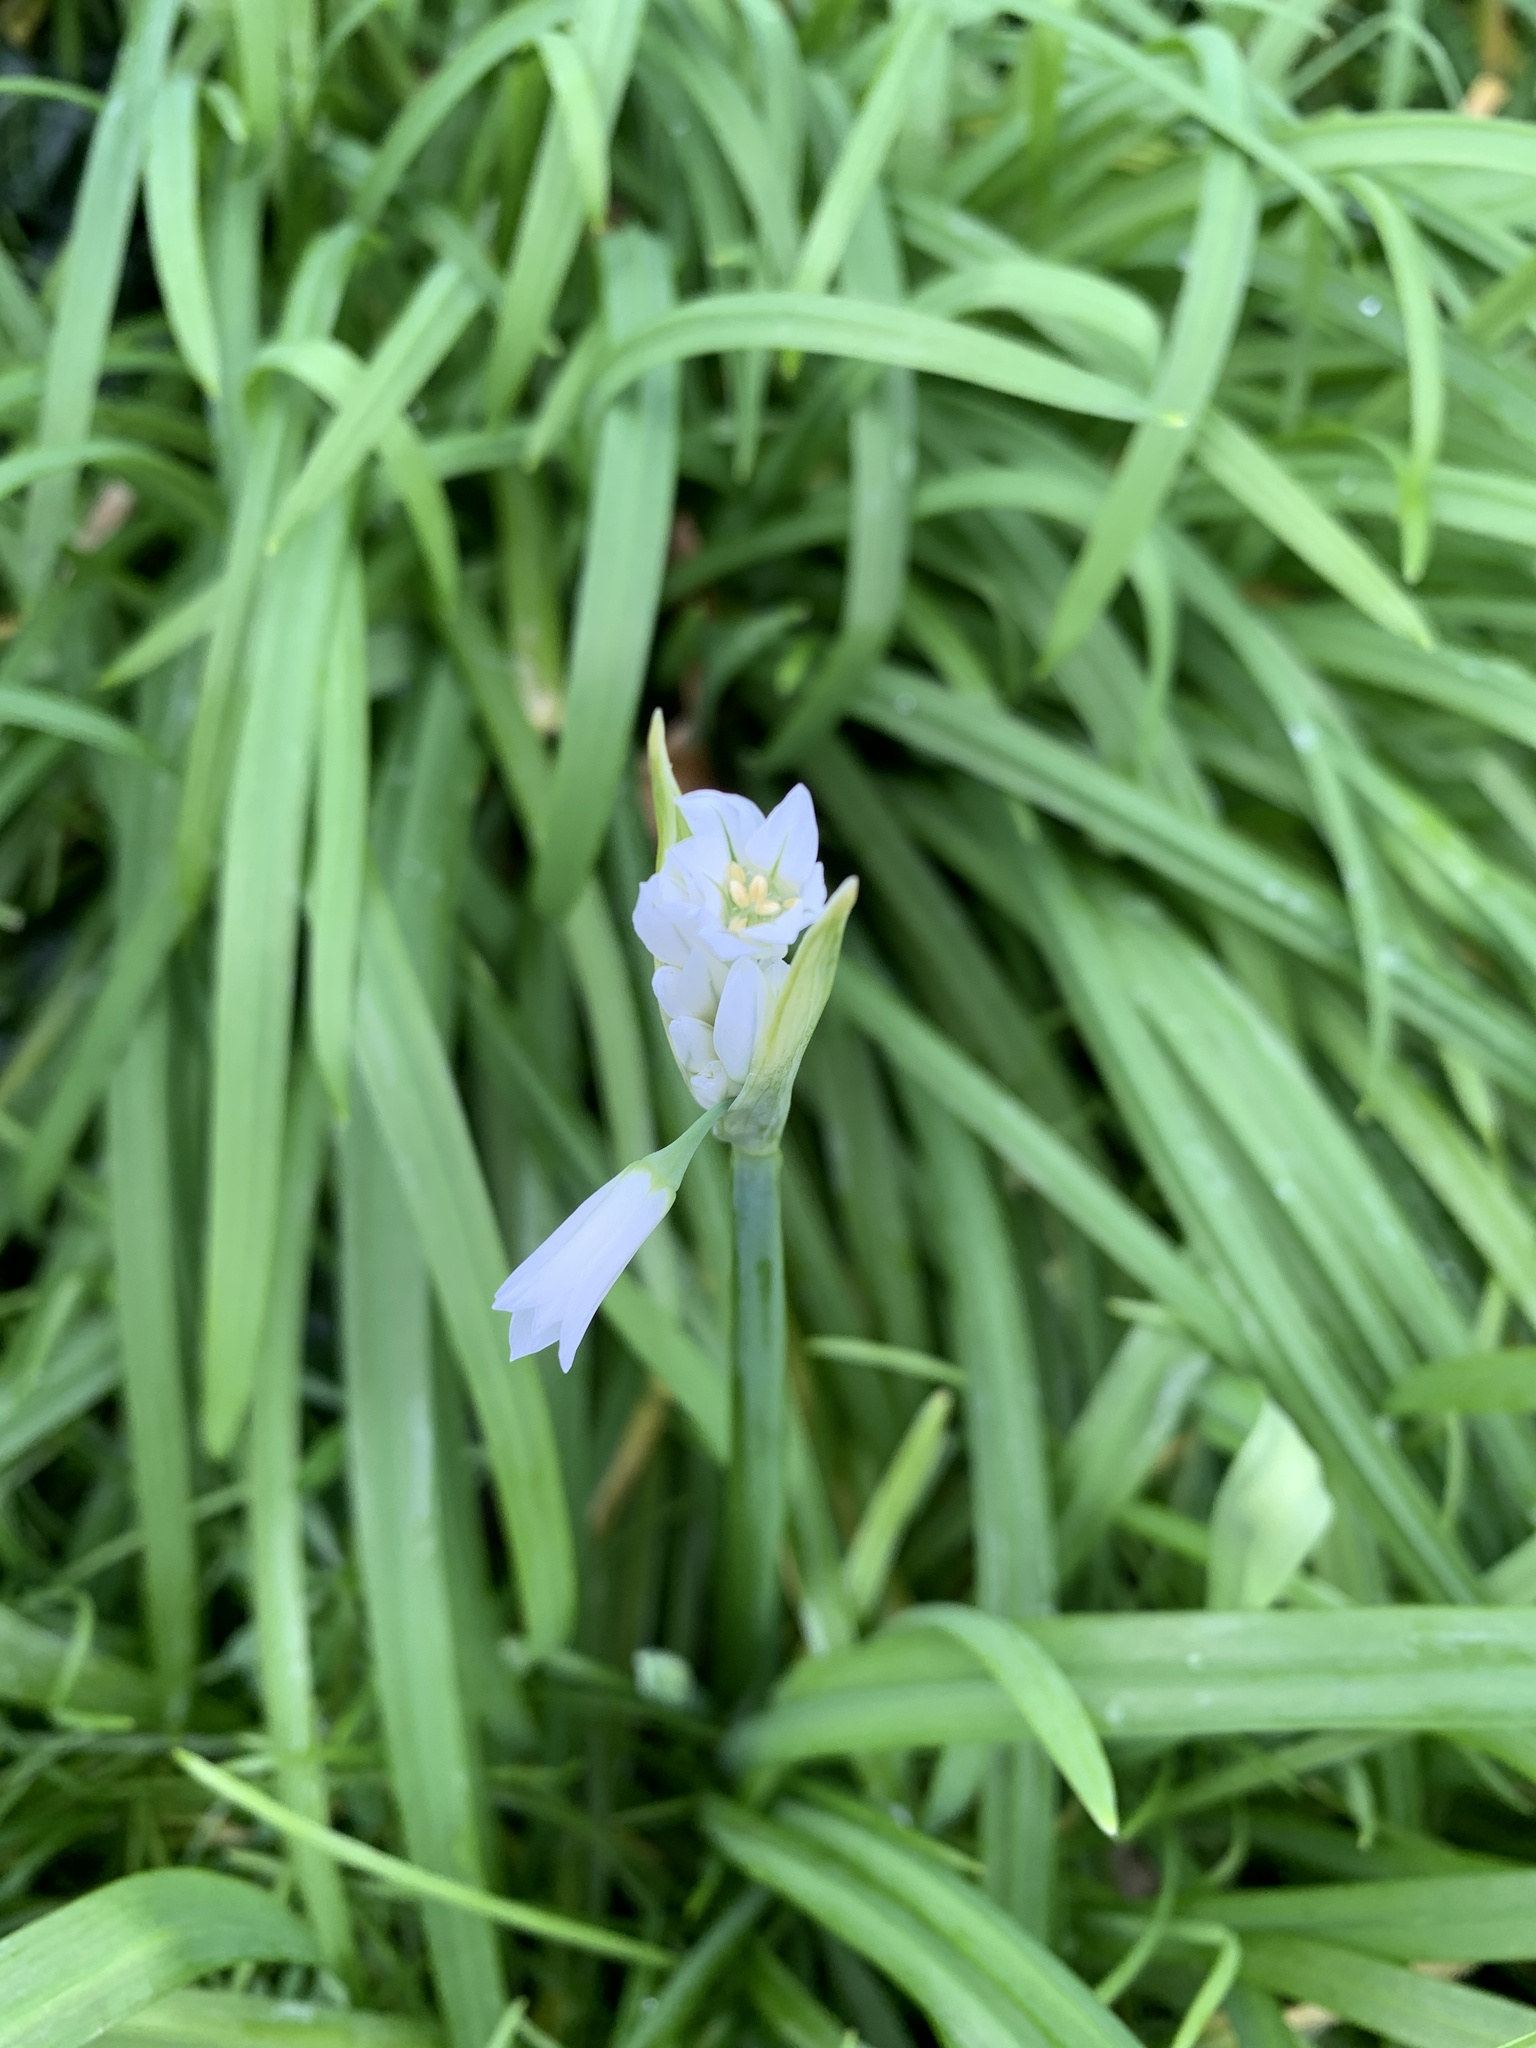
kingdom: Plantae
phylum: Tracheophyta
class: Liliopsida
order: Asparagales
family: Amaryllidaceae
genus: Allium
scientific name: Allium triquetrum
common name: Three-cornered garlic
